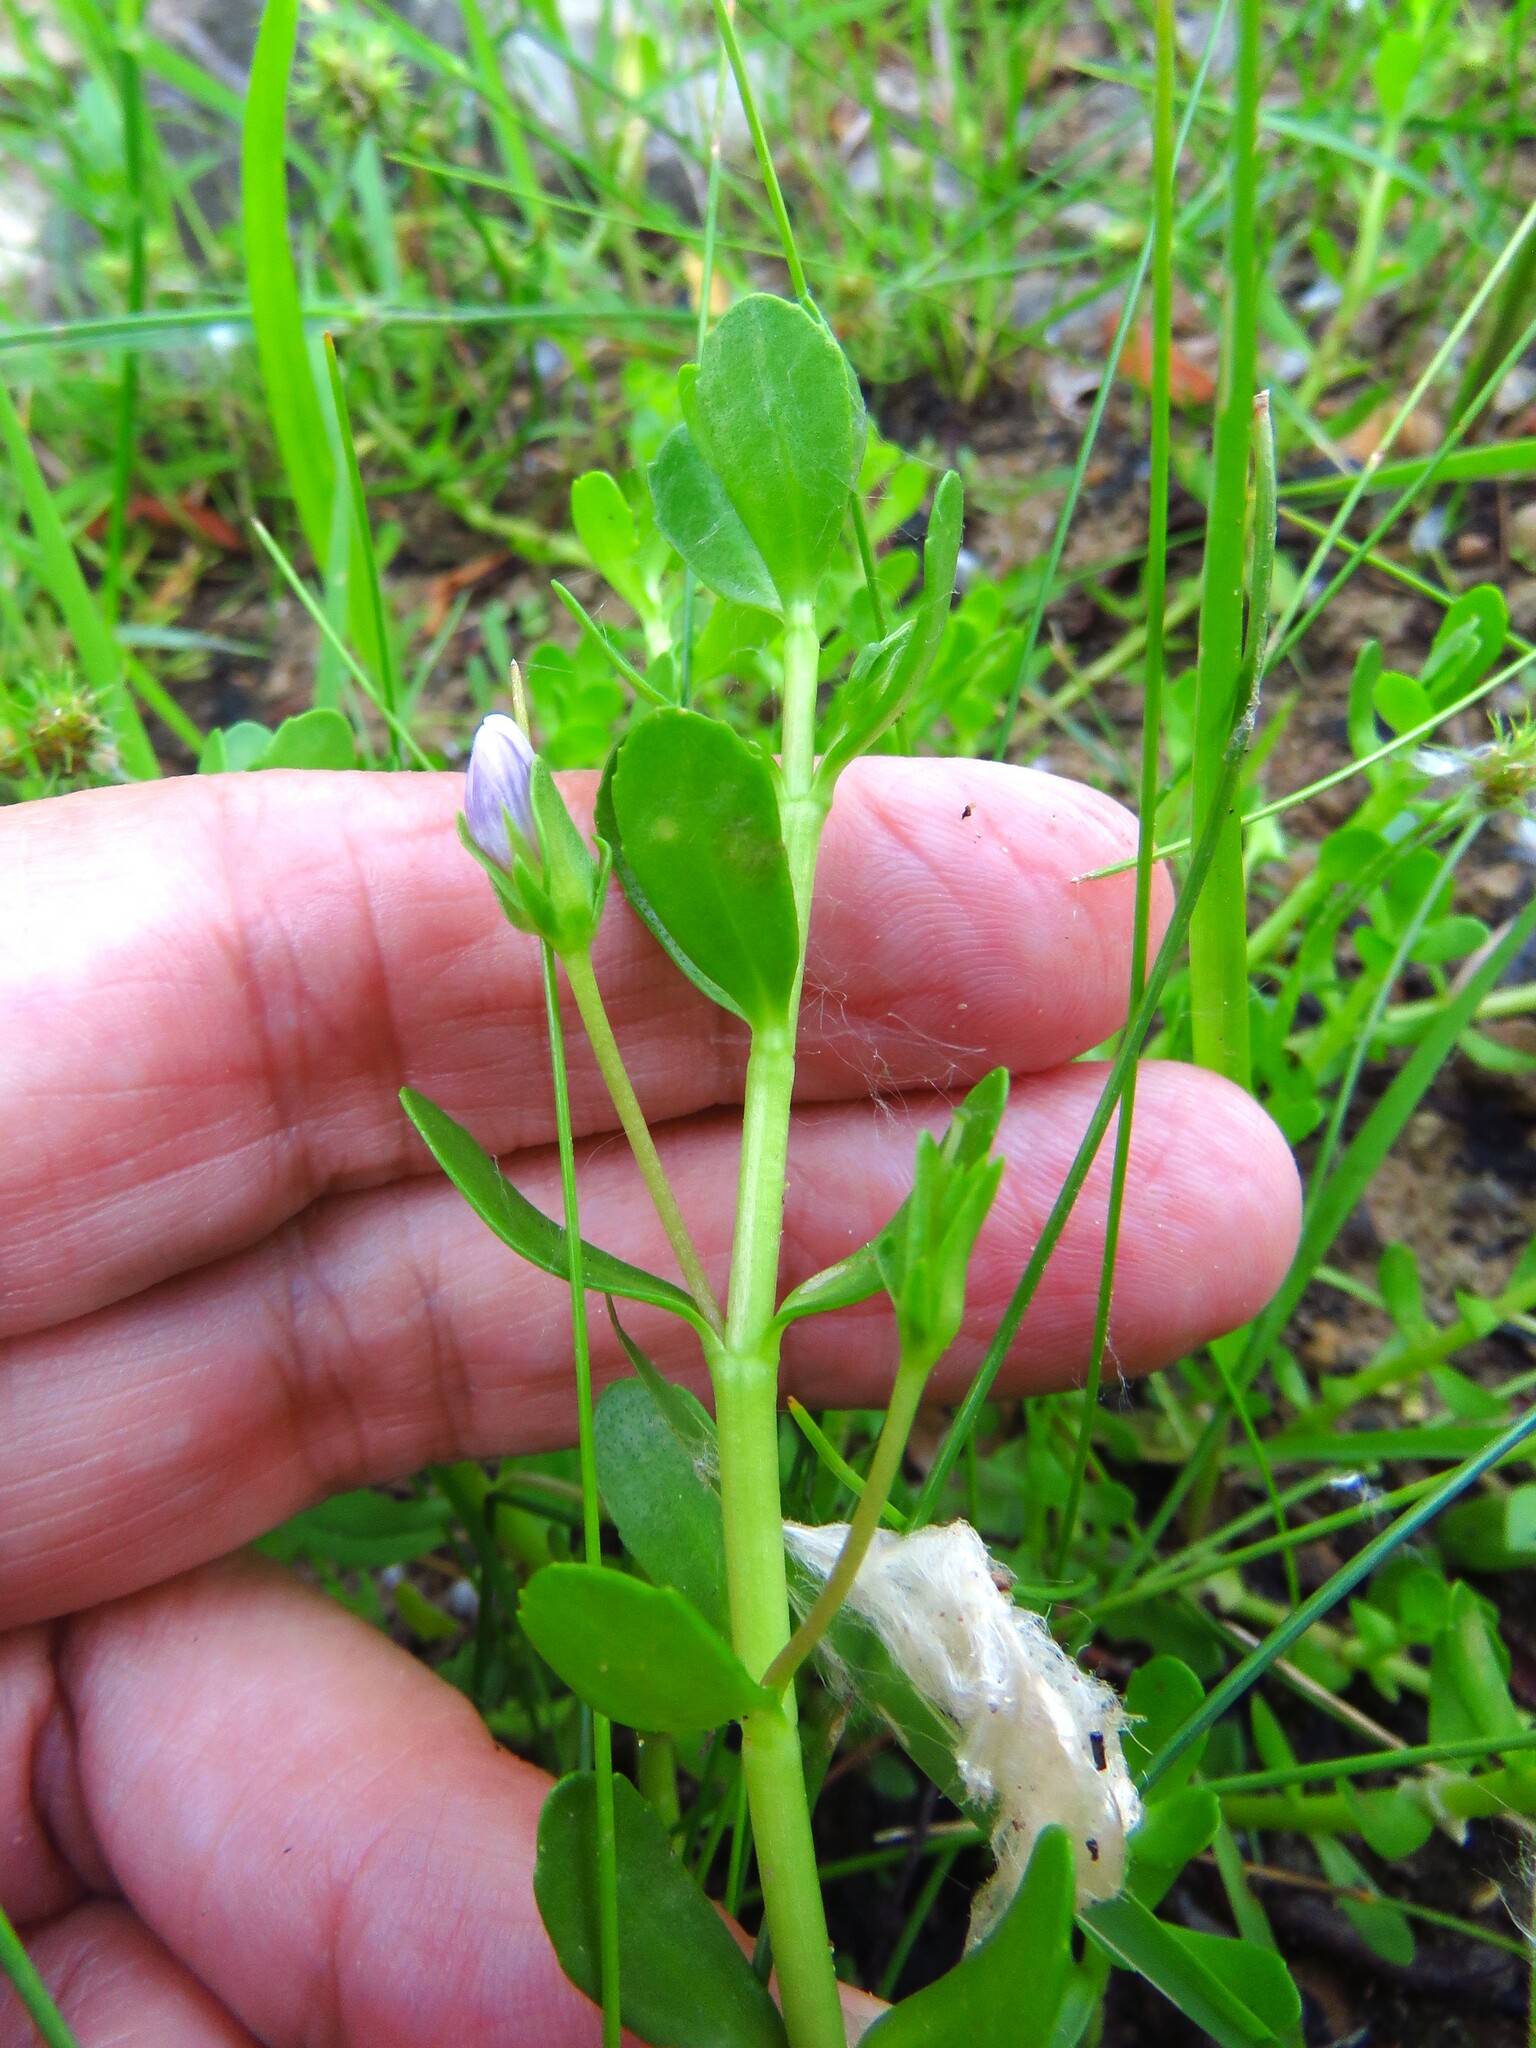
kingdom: Plantae
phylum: Tracheophyta
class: Magnoliopsida
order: Lamiales
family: Plantaginaceae
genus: Bacopa
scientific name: Bacopa monnieri
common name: Indian-pennywort
